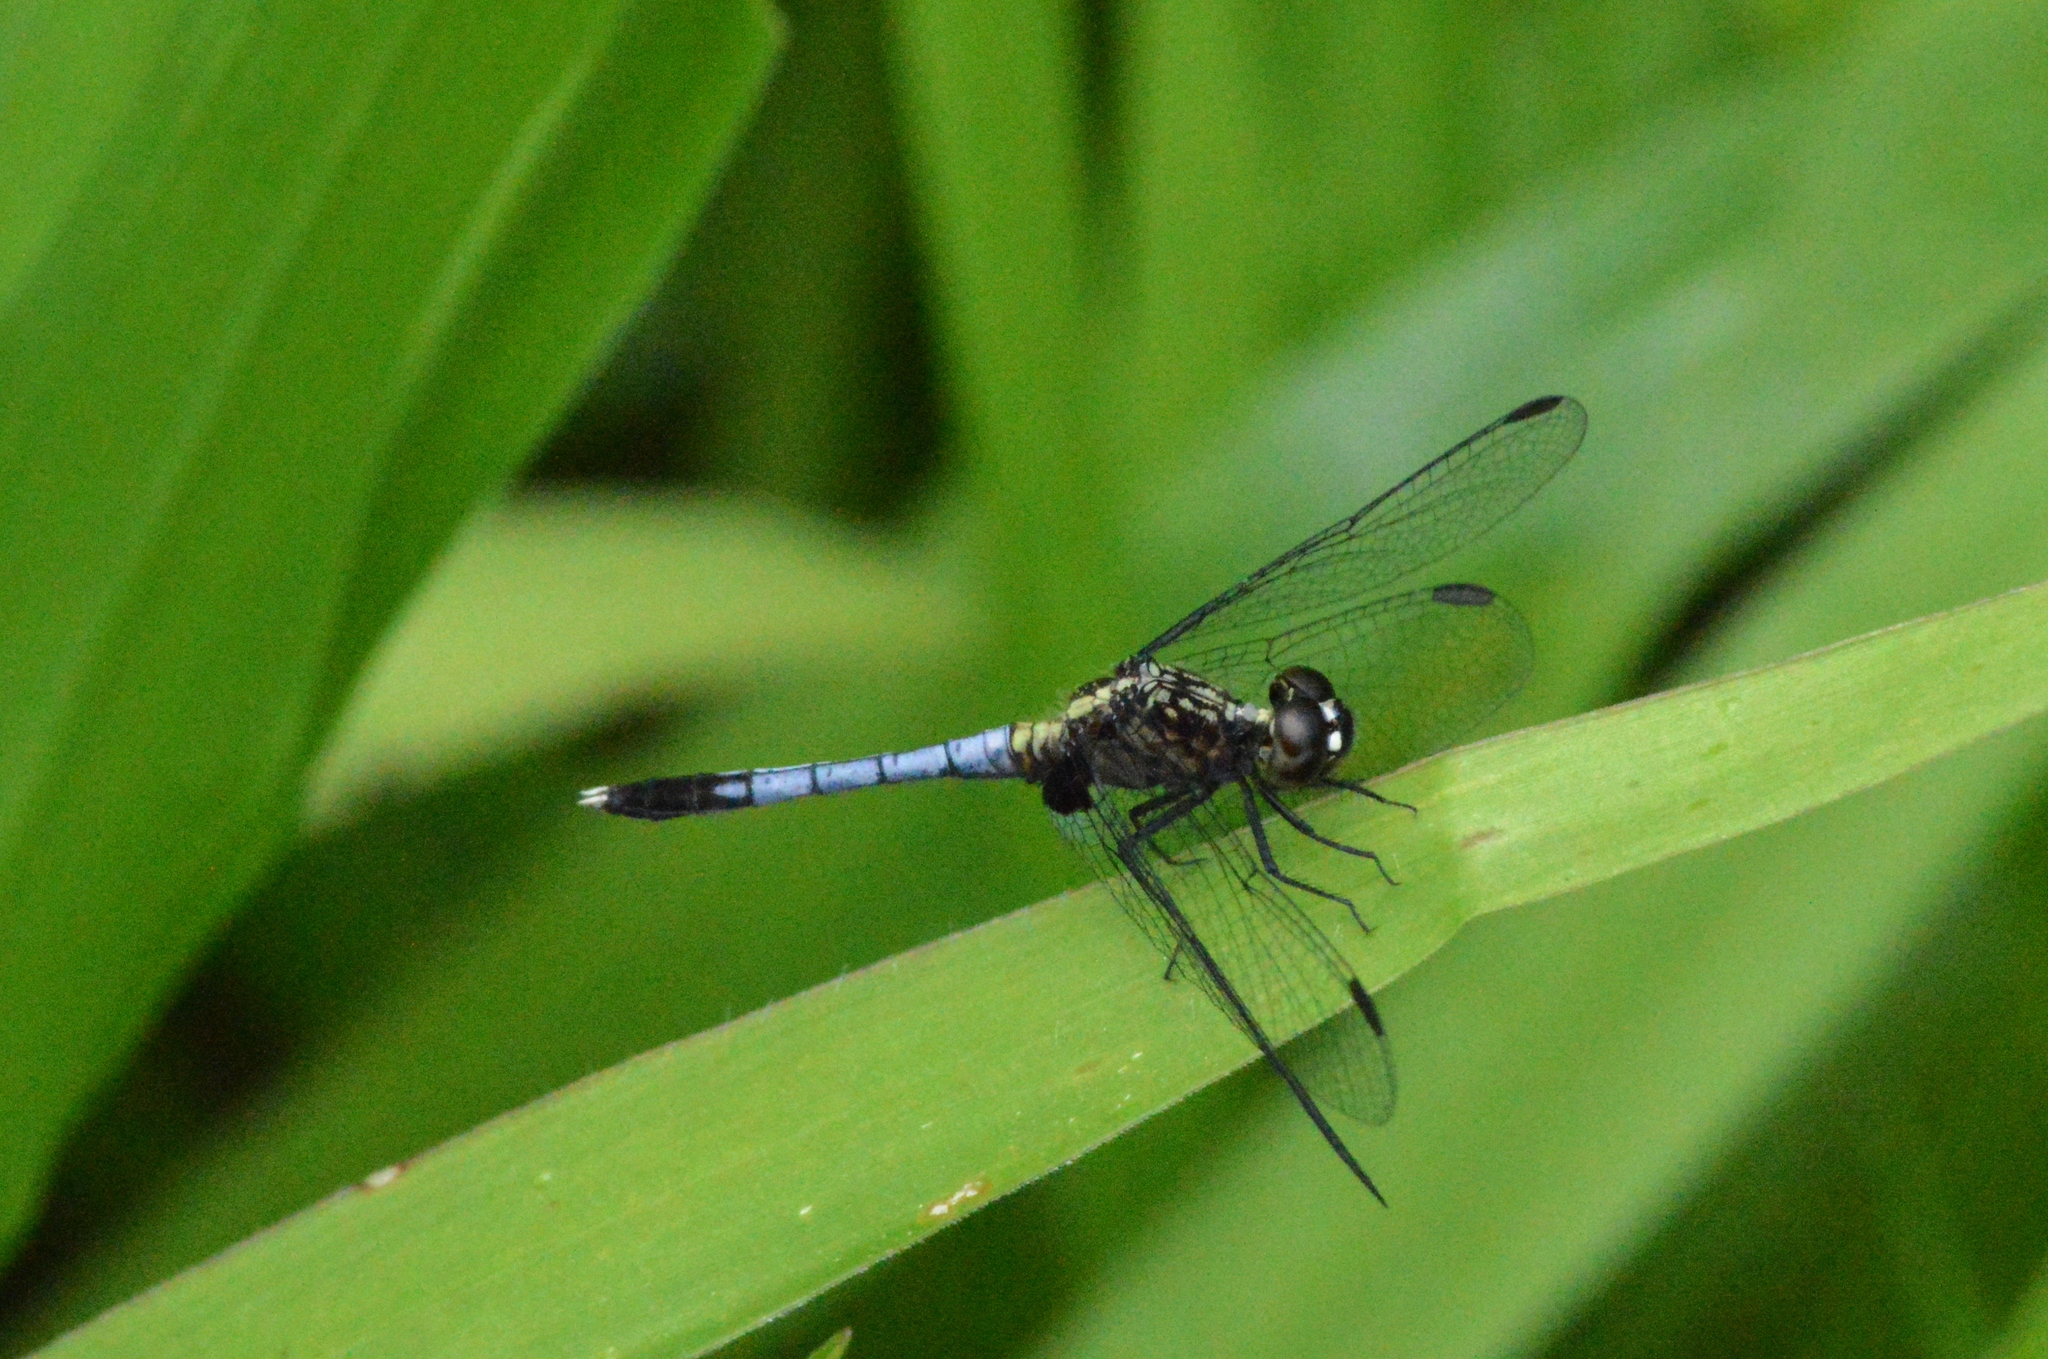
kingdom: Animalia
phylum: Arthropoda
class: Insecta
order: Odonata
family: Libellulidae
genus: Erythrodiplax
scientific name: Erythrodiplax avittata
